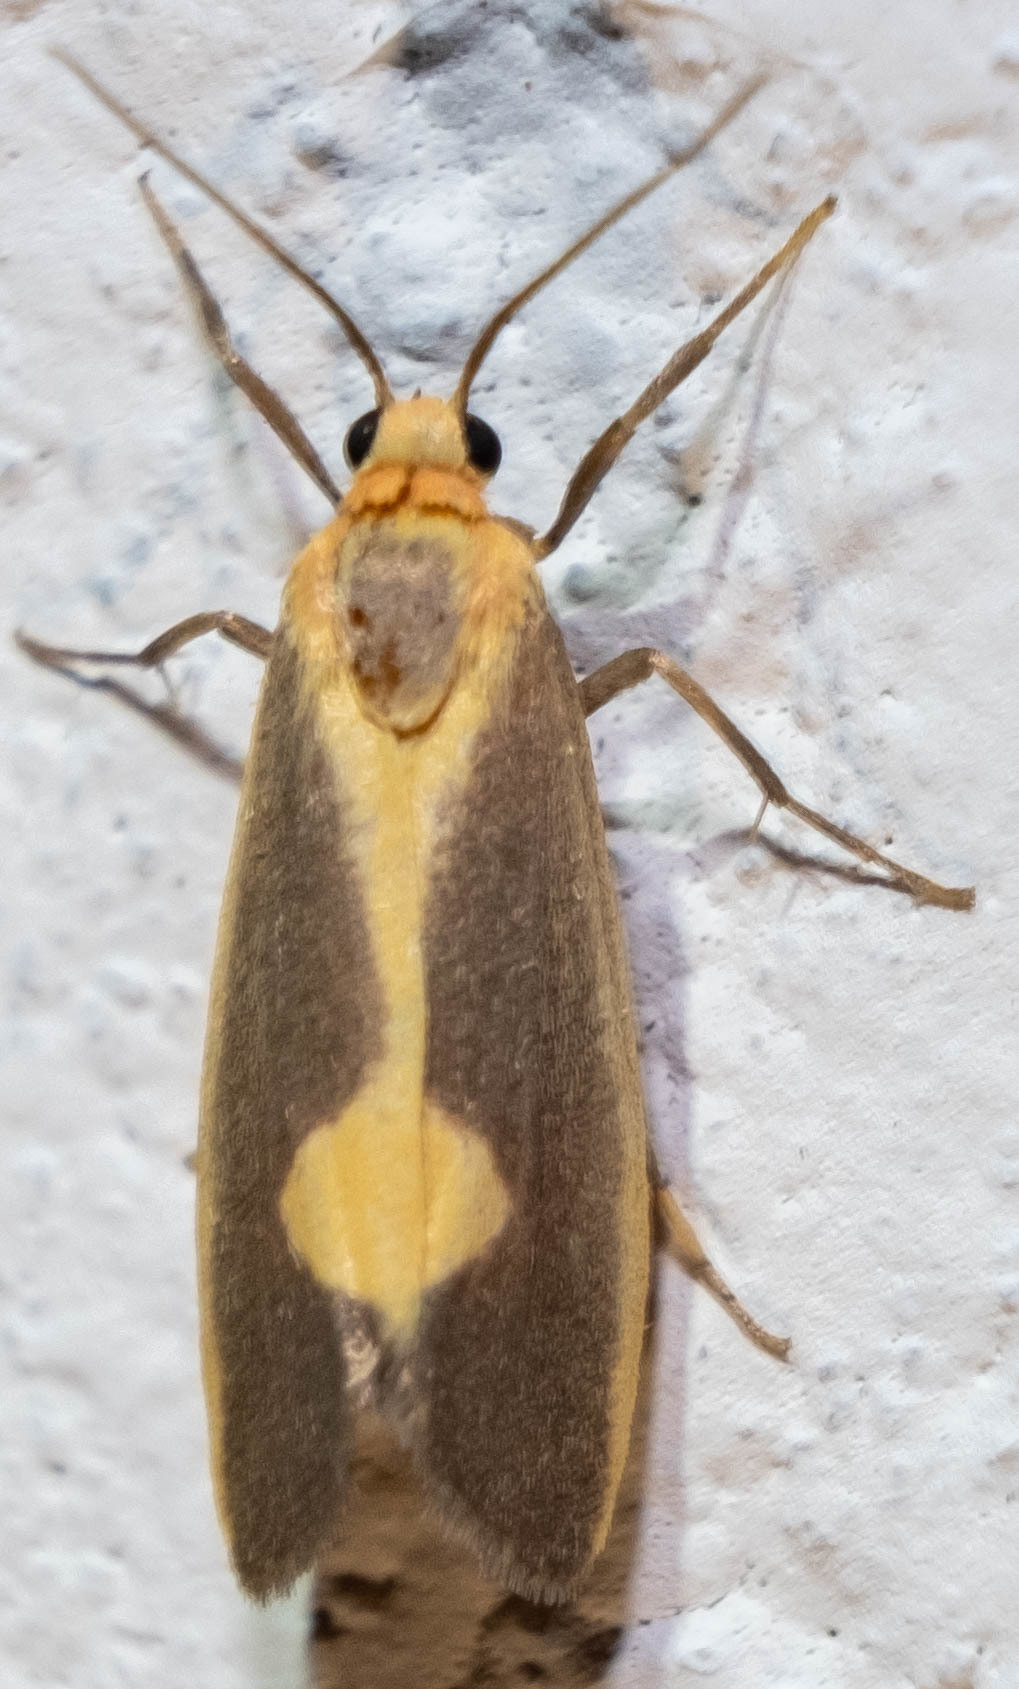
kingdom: Animalia
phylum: Arthropoda
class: Insecta
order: Lepidoptera
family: Erebidae
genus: Cisthene
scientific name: Cisthene plumbea
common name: Lead colored lichen moth
